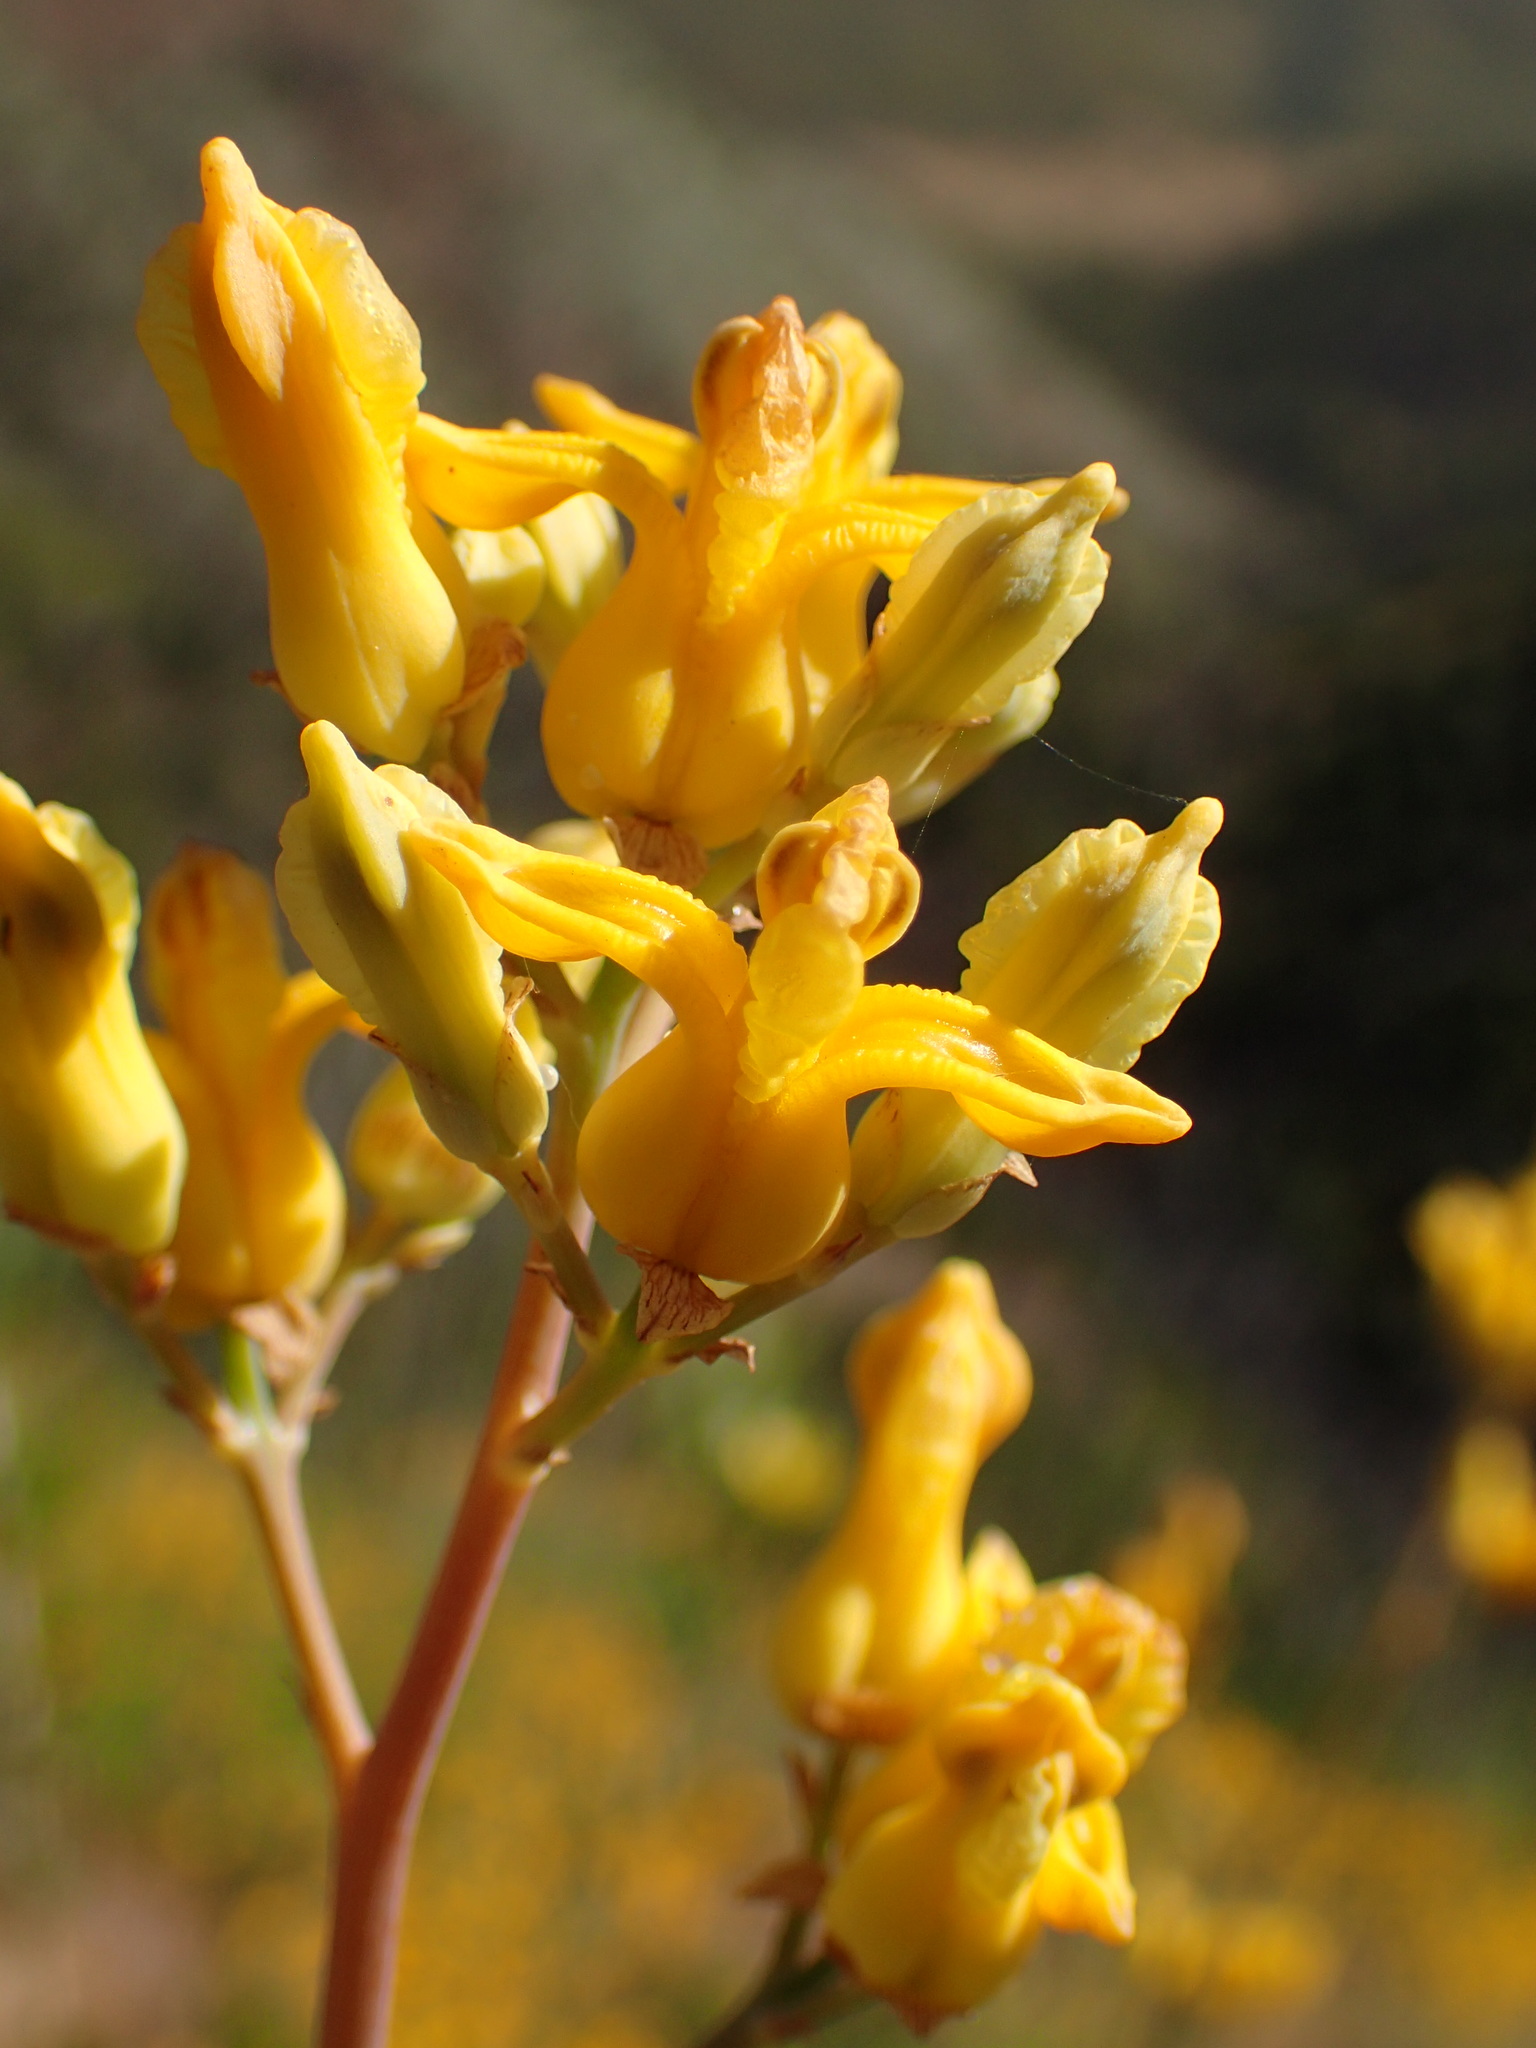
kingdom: Plantae
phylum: Tracheophyta
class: Magnoliopsida
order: Ranunculales
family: Papaveraceae
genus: Ehrendorferia
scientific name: Ehrendorferia chrysantha
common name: Golden eardrops
